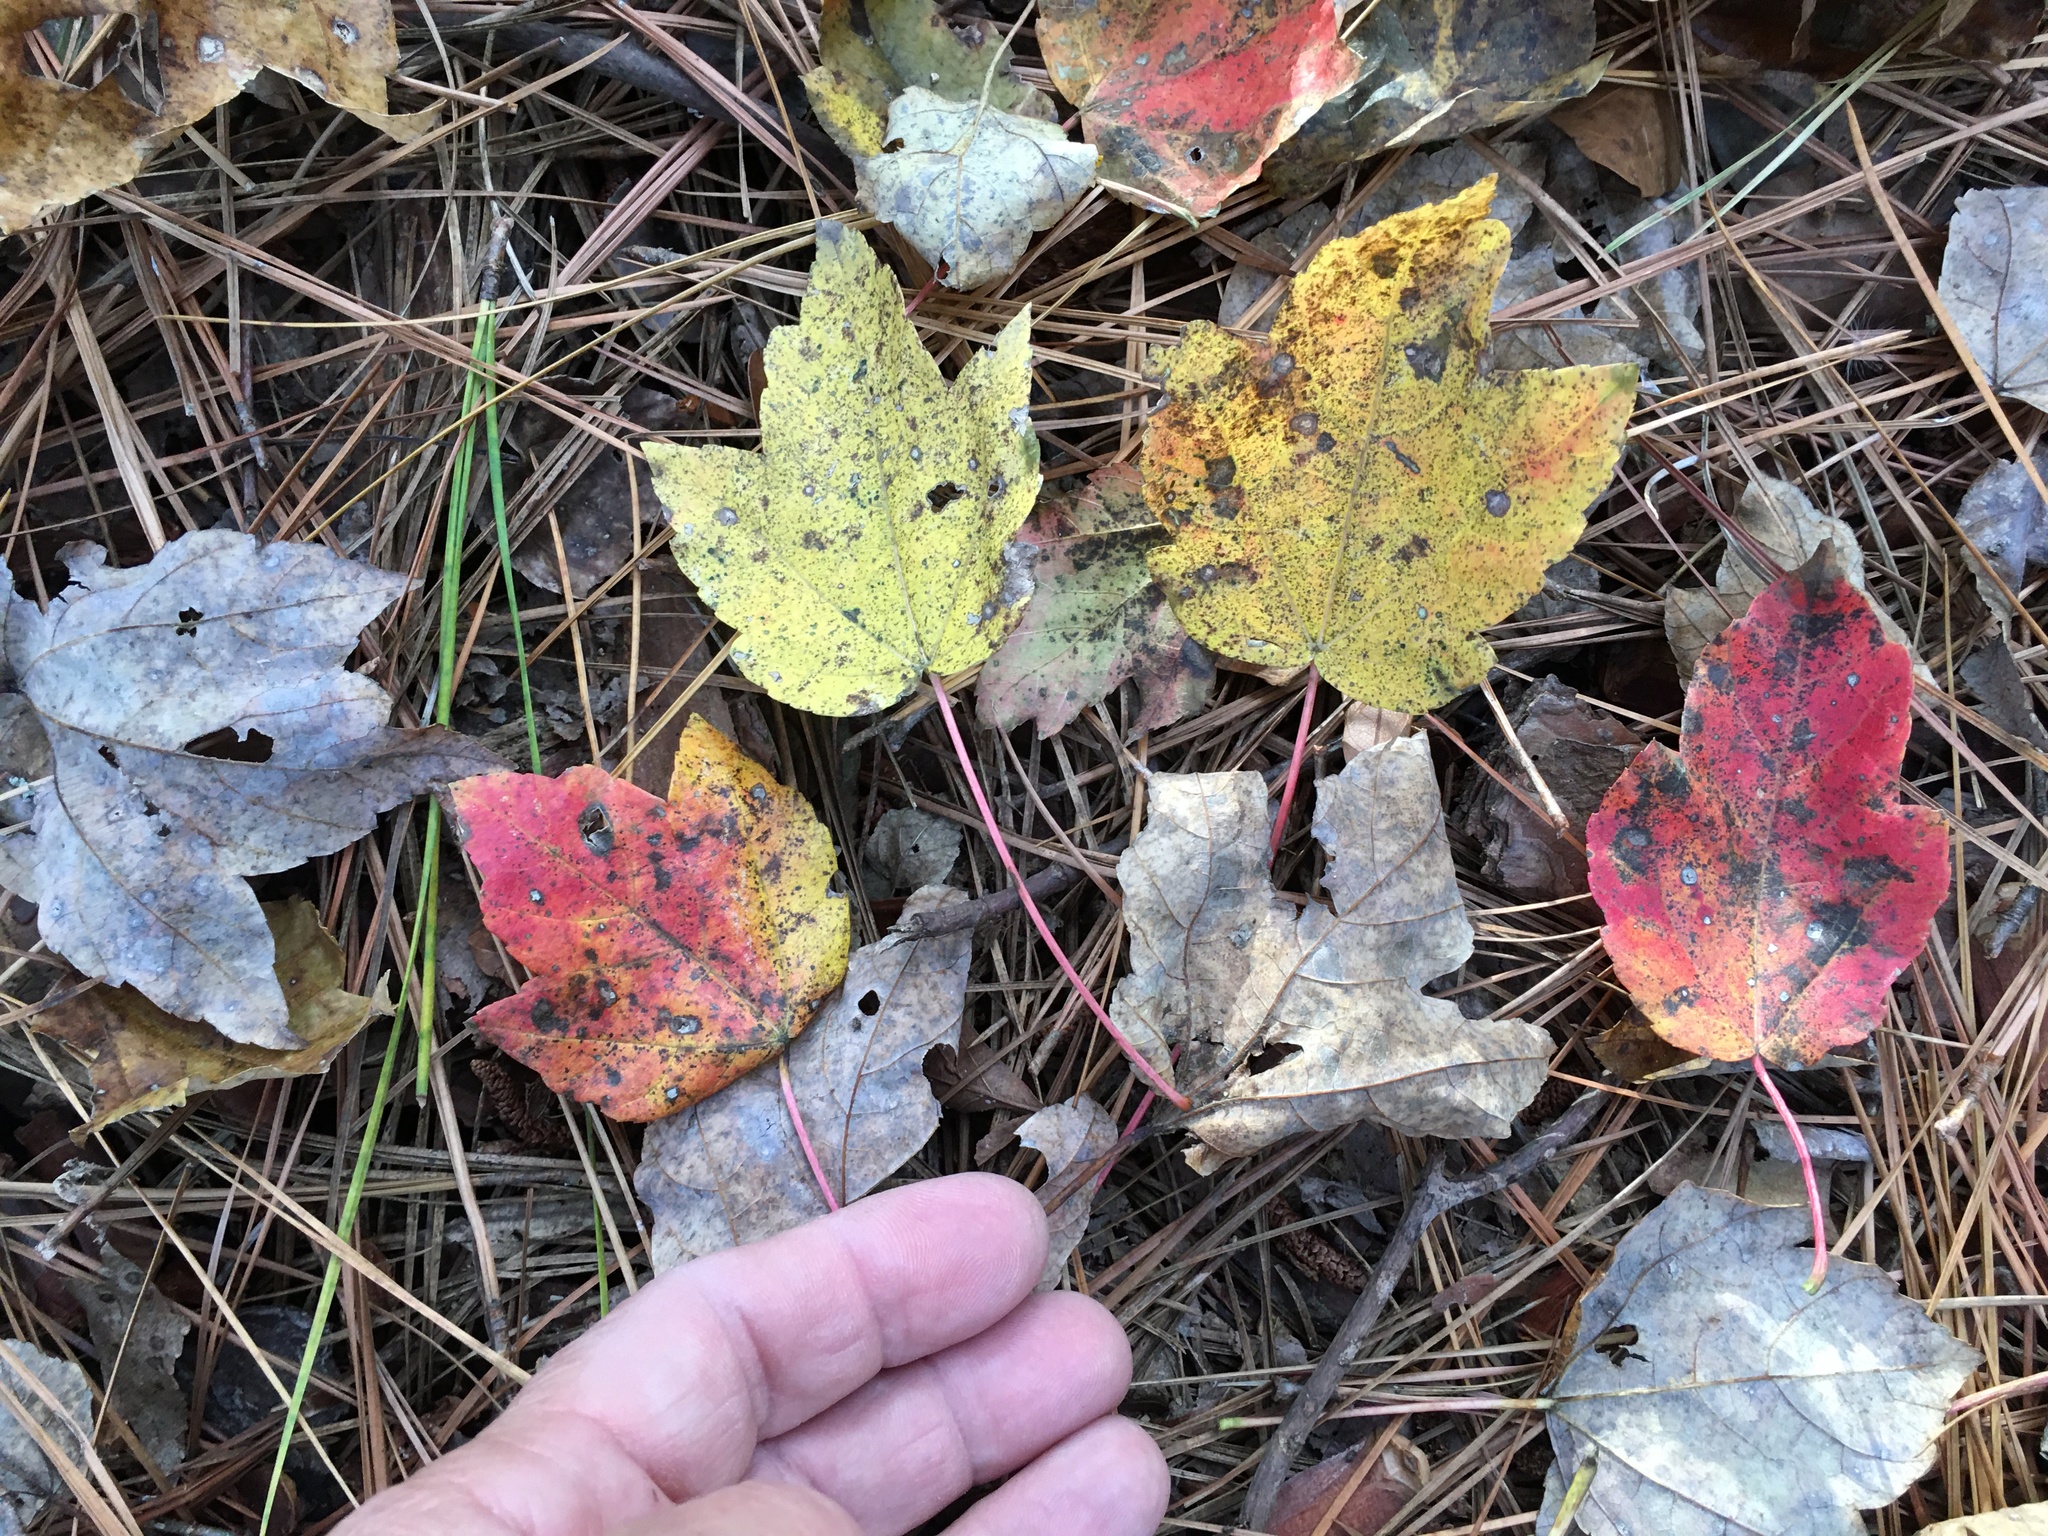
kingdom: Plantae
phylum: Tracheophyta
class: Magnoliopsida
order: Sapindales
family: Sapindaceae
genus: Acer
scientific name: Acer rubrum
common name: Red maple
